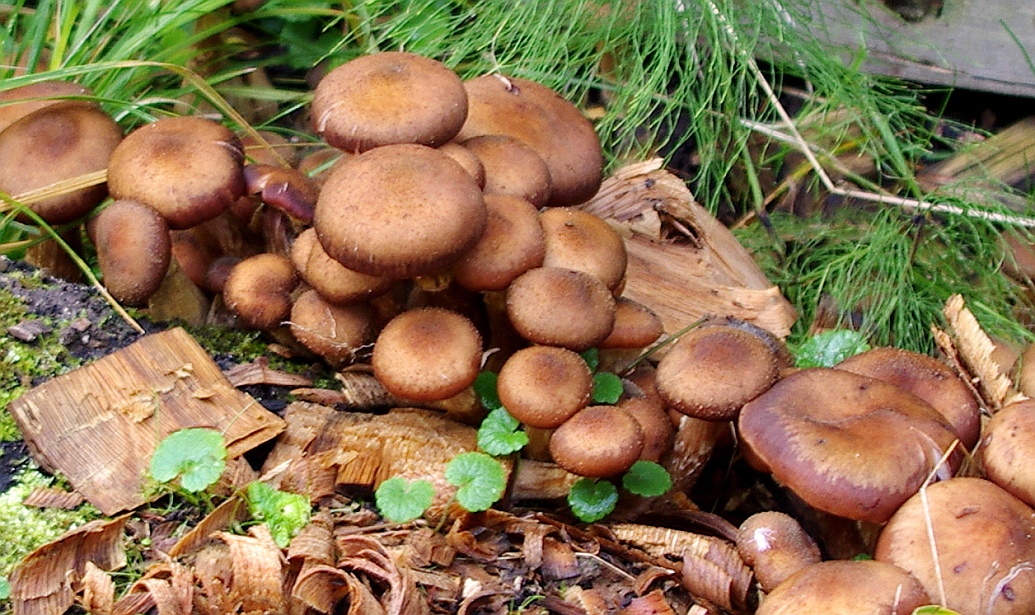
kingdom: Fungi
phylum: Basidiomycota
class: Agaricomycetes
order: Agaricales
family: Physalacriaceae
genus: Armillaria
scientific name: Armillaria ostoyae
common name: Dark honey fungus
